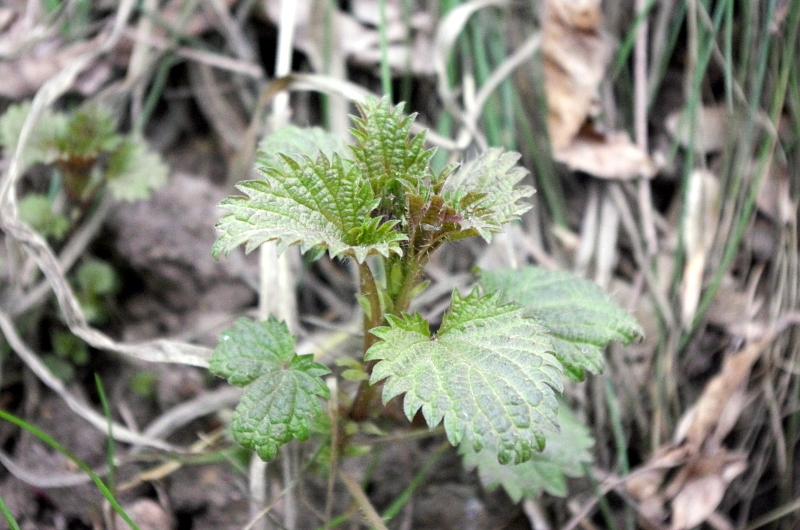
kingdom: Plantae
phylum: Tracheophyta
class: Magnoliopsida
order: Rosales
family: Urticaceae
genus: Urtica
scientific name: Urtica dioica
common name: Common nettle
